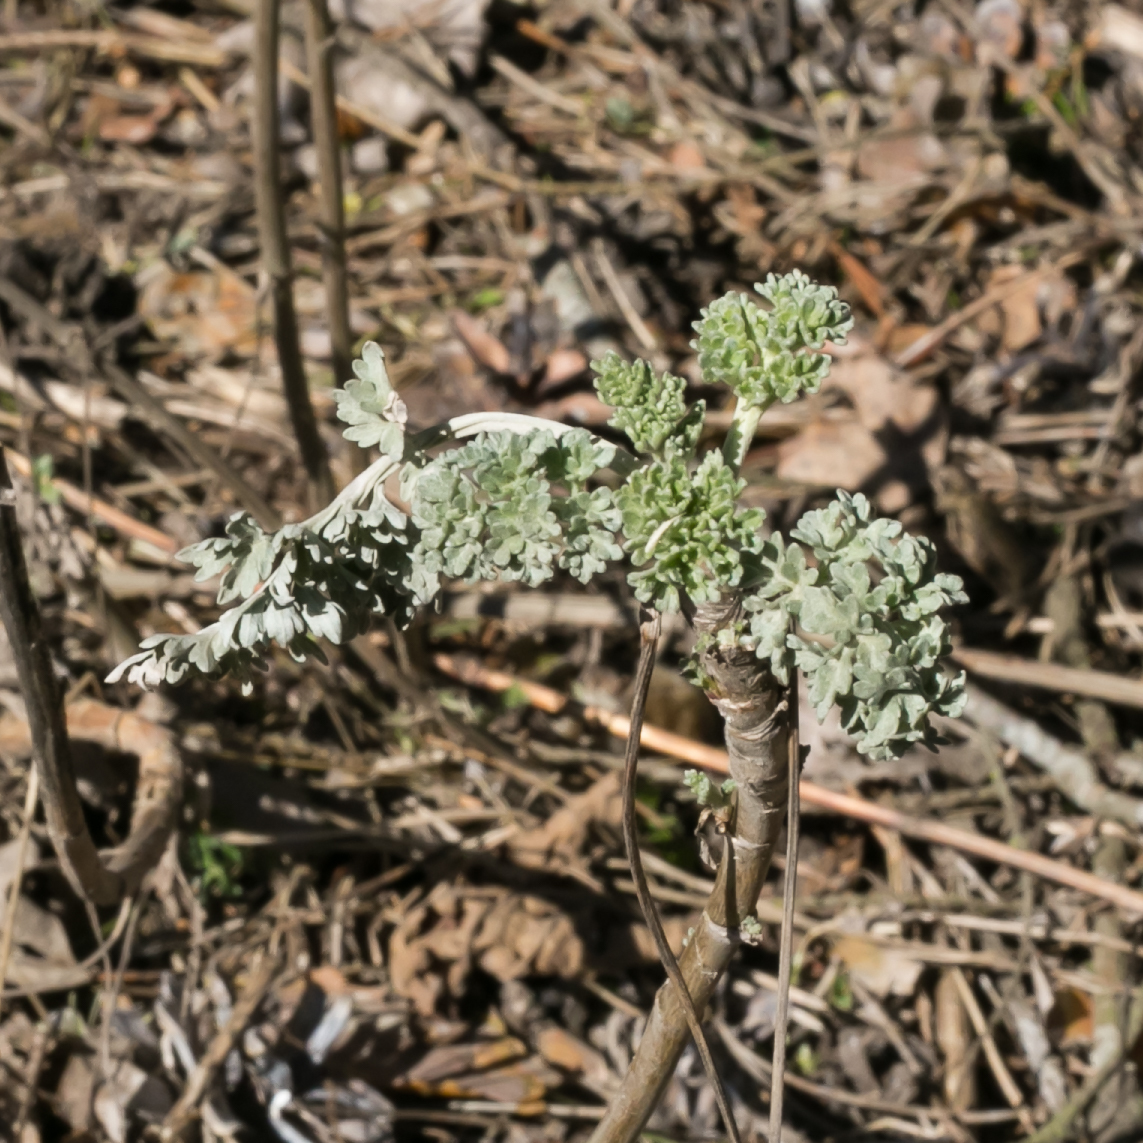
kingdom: Plantae
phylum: Tracheophyta
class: Magnoliopsida
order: Asterales
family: Asteraceae
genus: Artemisia
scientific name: Artemisia absinthium
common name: Wormwood
